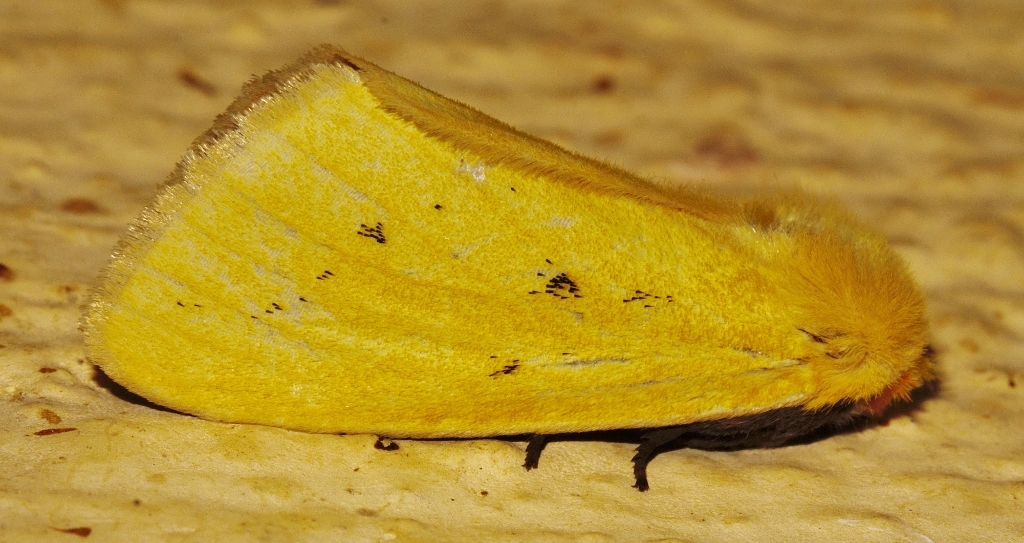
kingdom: Animalia
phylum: Arthropoda
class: Insecta
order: Lepidoptera
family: Notodontidae
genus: Antheua
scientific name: Antheua tricolor
